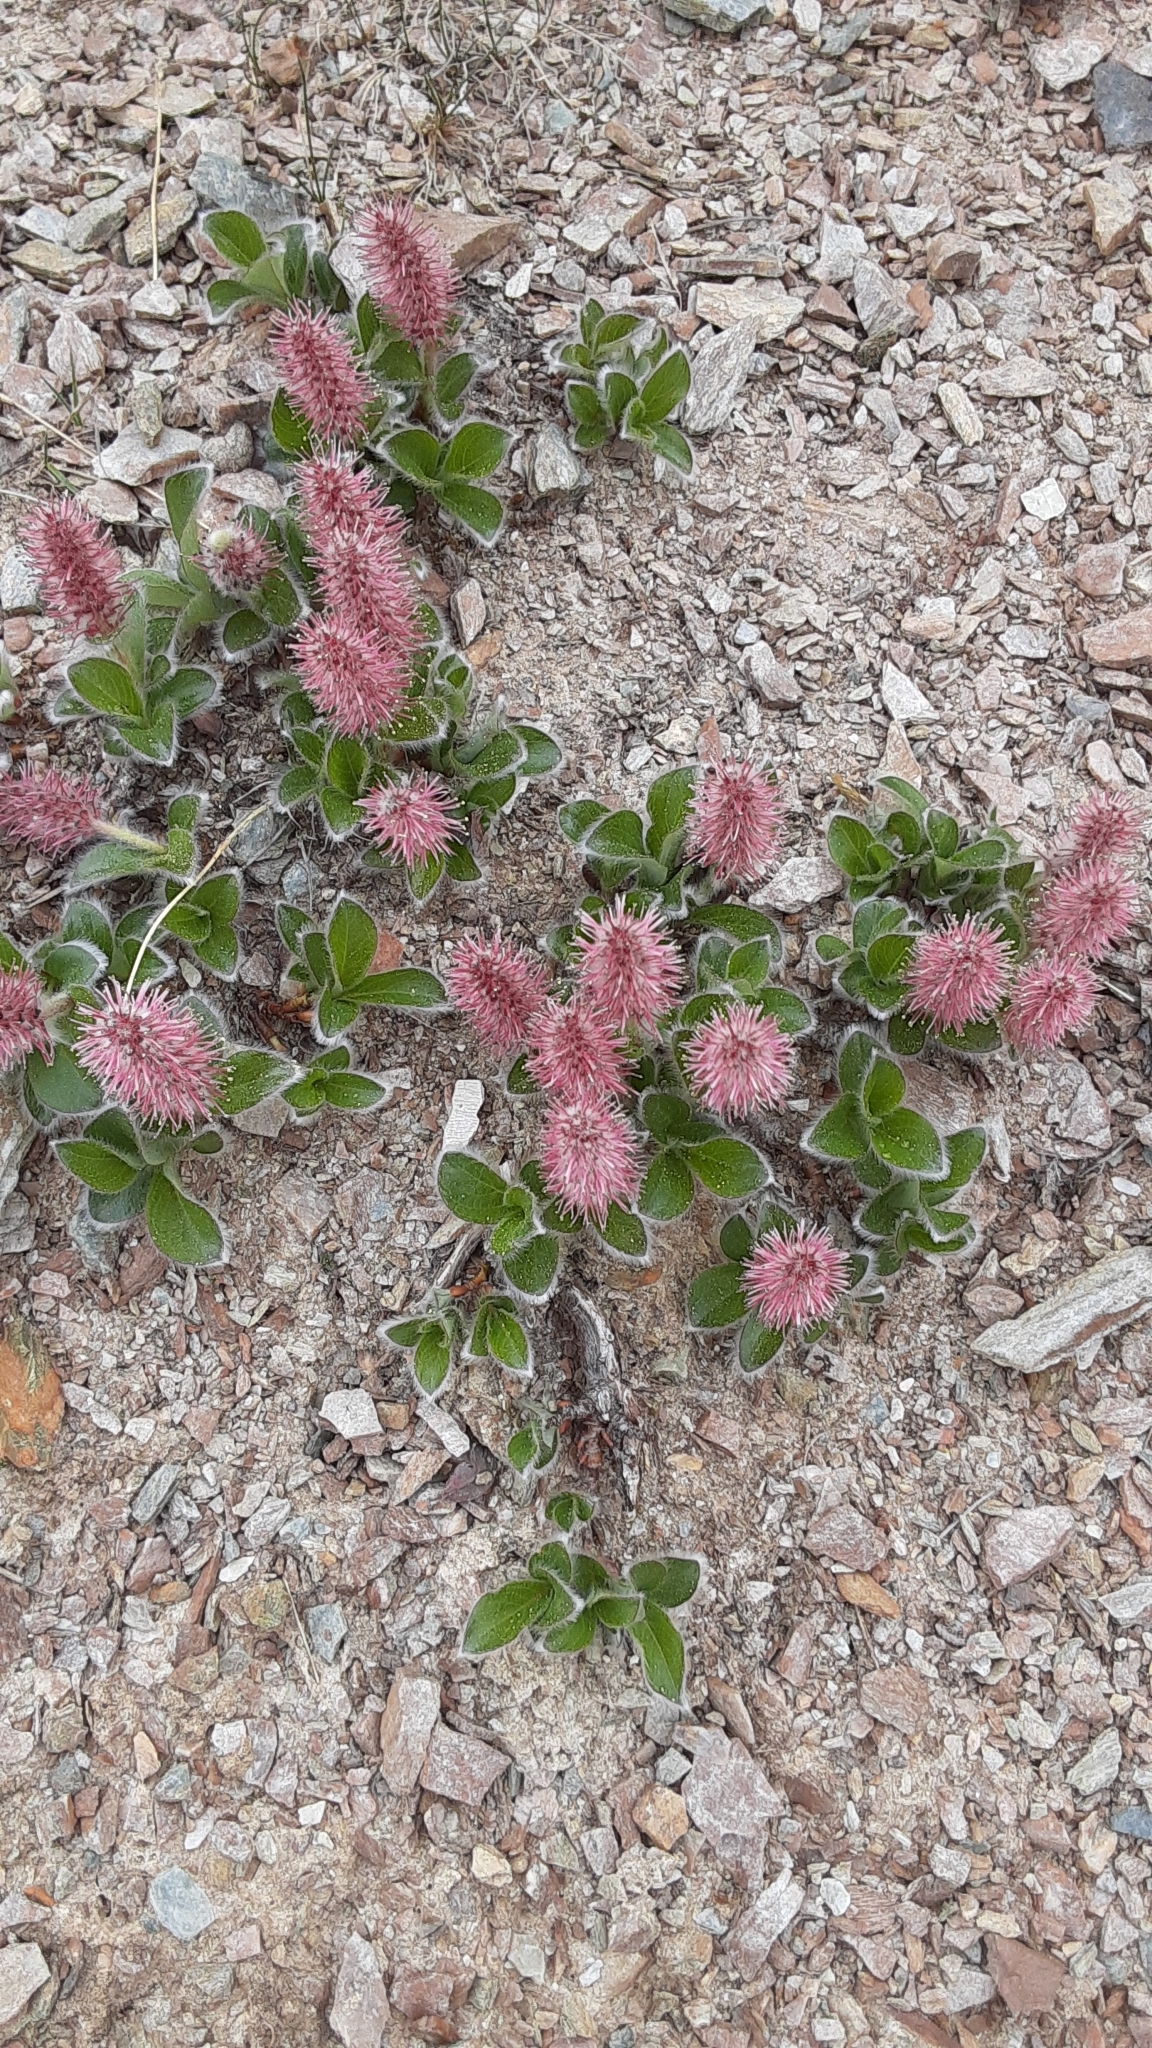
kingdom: Plantae
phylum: Tracheophyta
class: Magnoliopsida
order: Malpighiales
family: Salicaceae
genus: Salix
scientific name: Salix arctica
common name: Arctic willow
